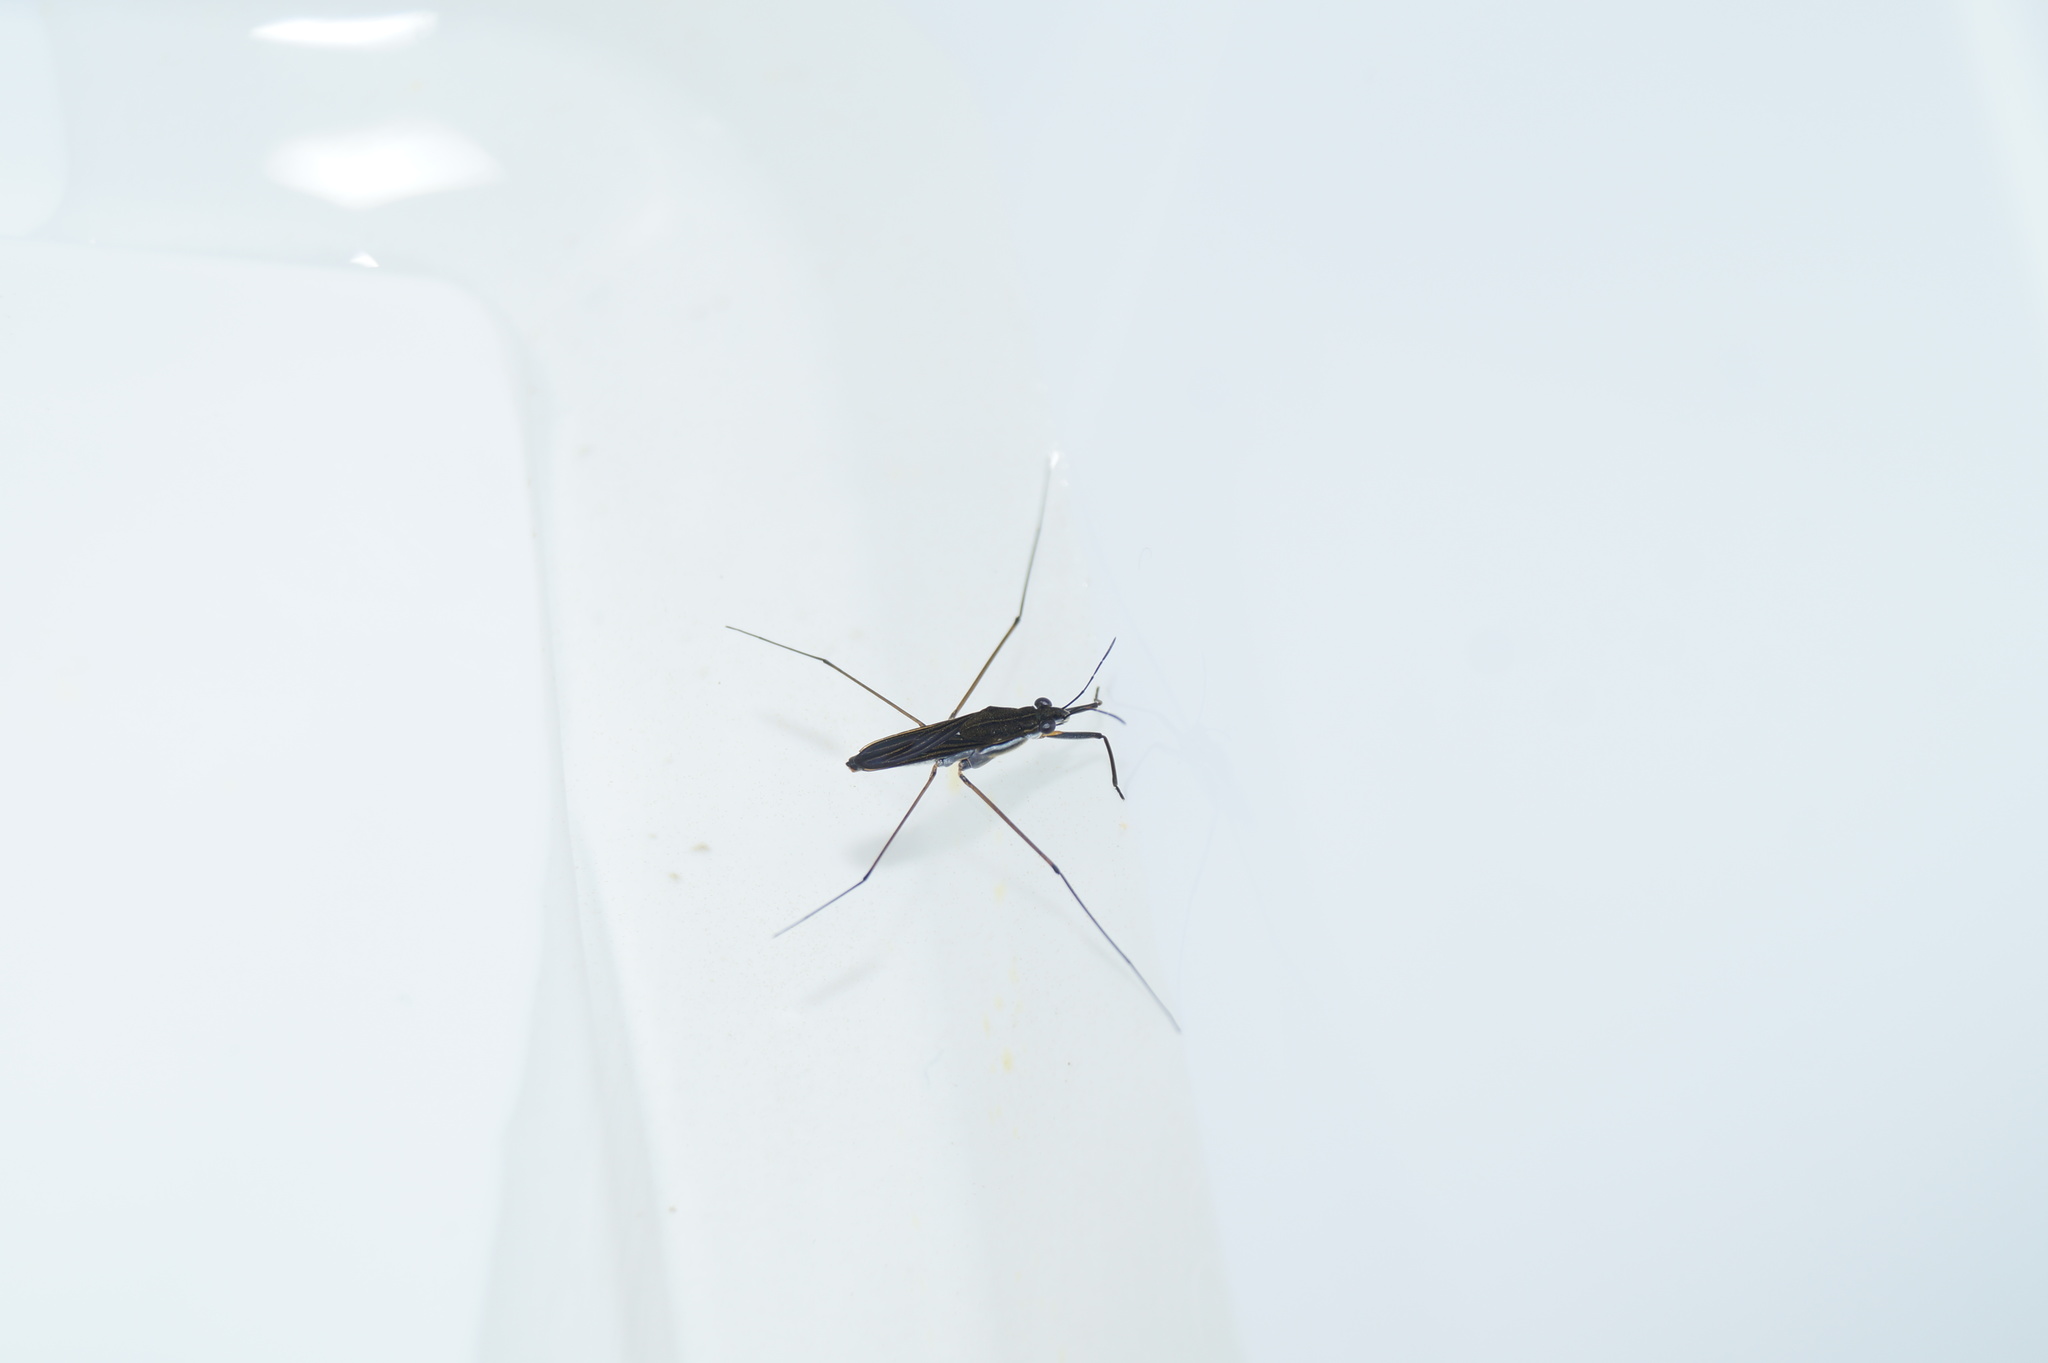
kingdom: Animalia
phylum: Arthropoda
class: Insecta
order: Hemiptera
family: Gerridae
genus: Gerris
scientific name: Gerris odontogaster
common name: Toothed pondskater
